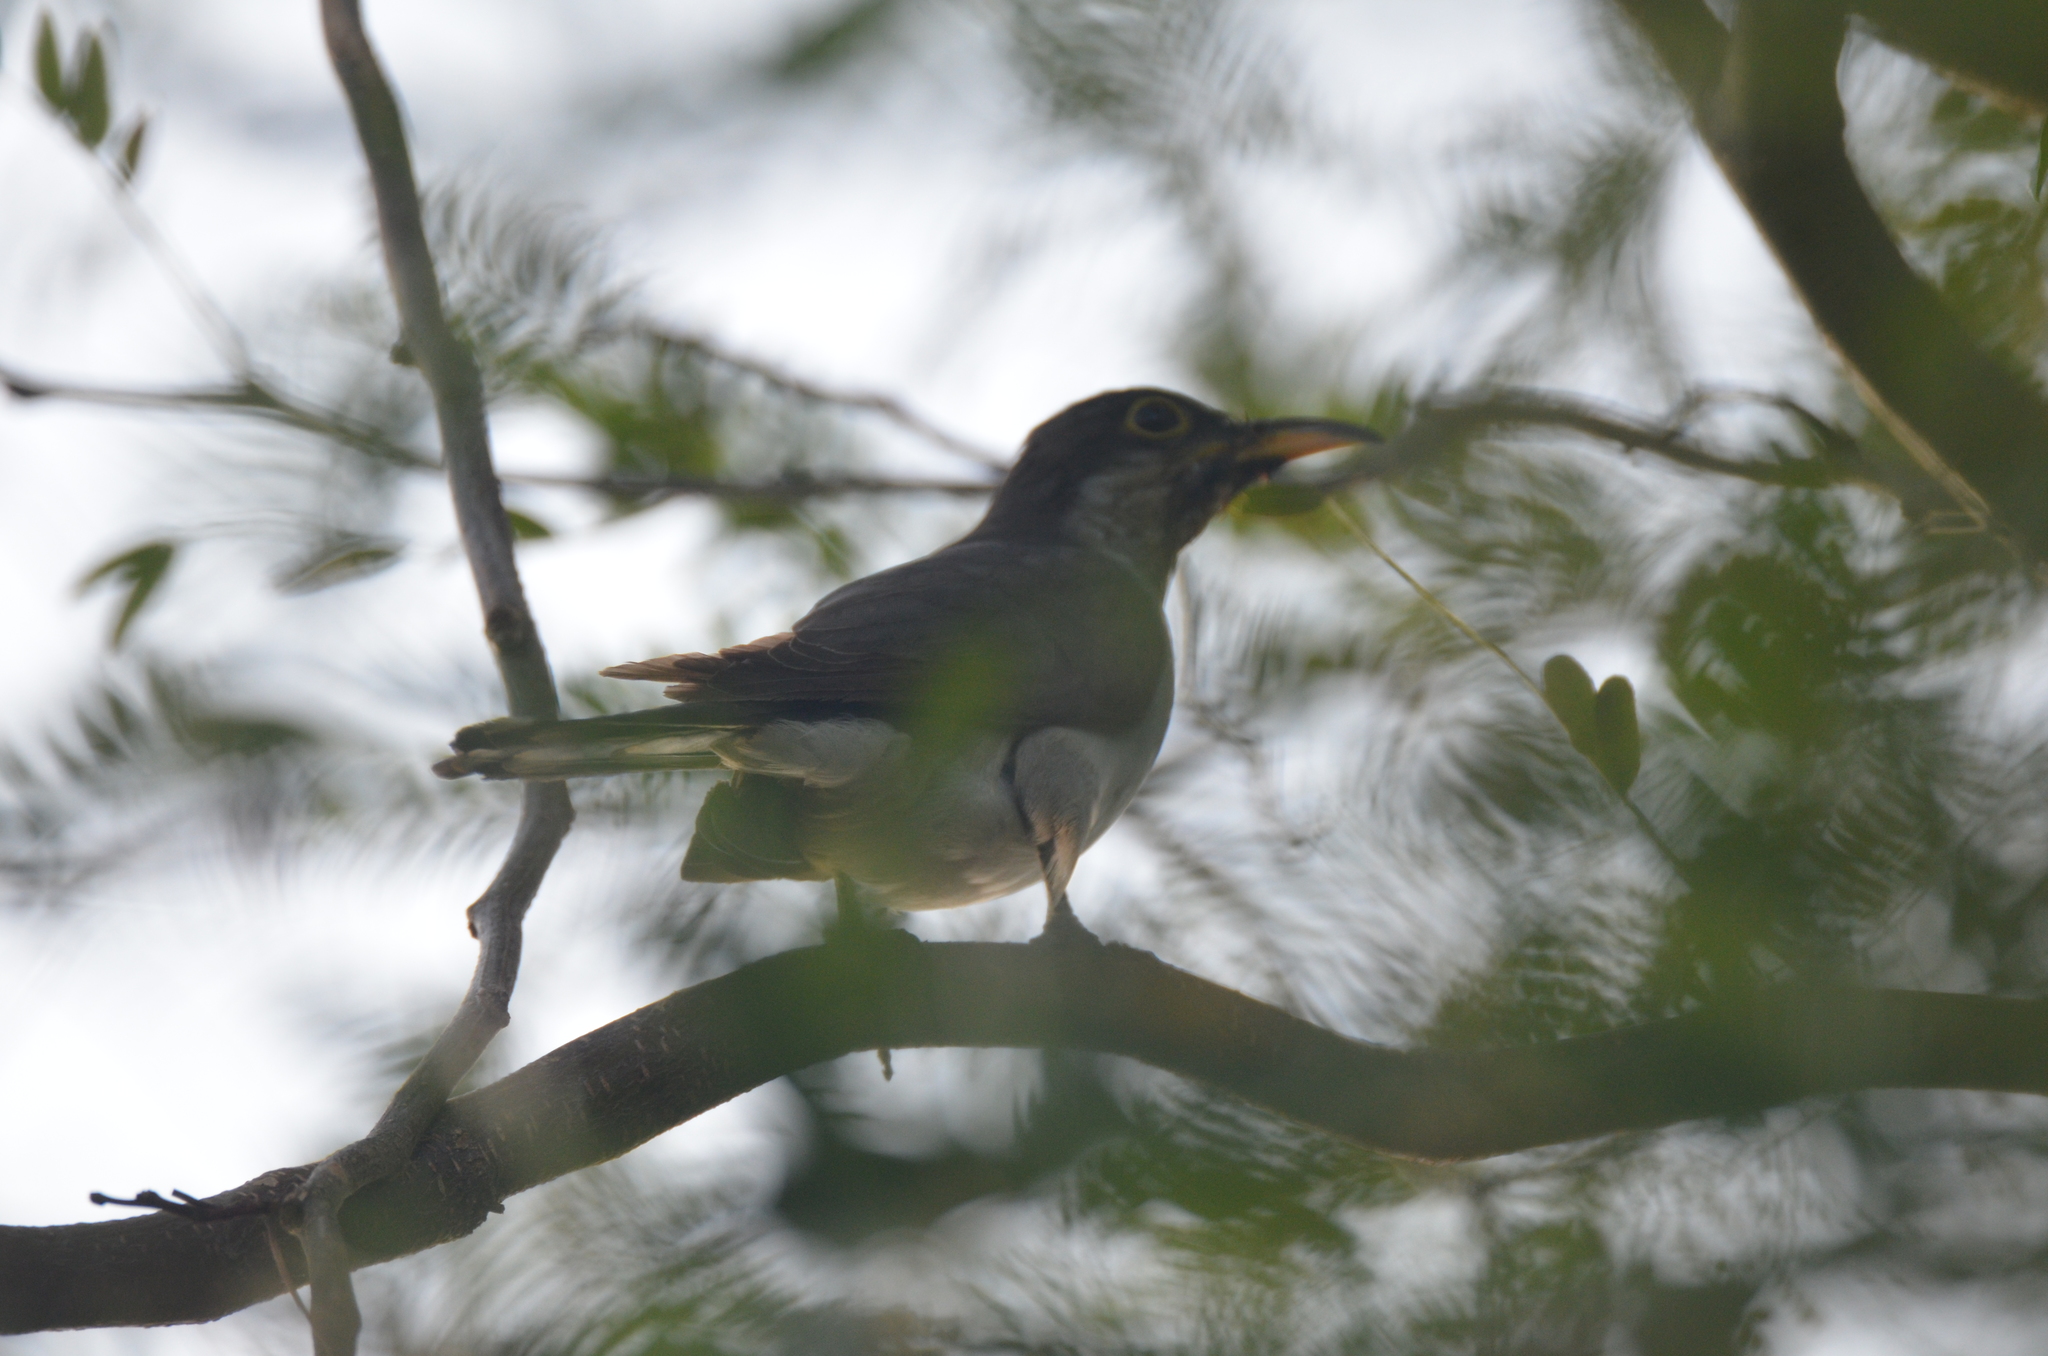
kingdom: Animalia
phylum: Chordata
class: Aves
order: Cuculiformes
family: Cuculidae
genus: Coccyzus
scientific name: Coccyzus americanus
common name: Yellow-billed cuckoo
